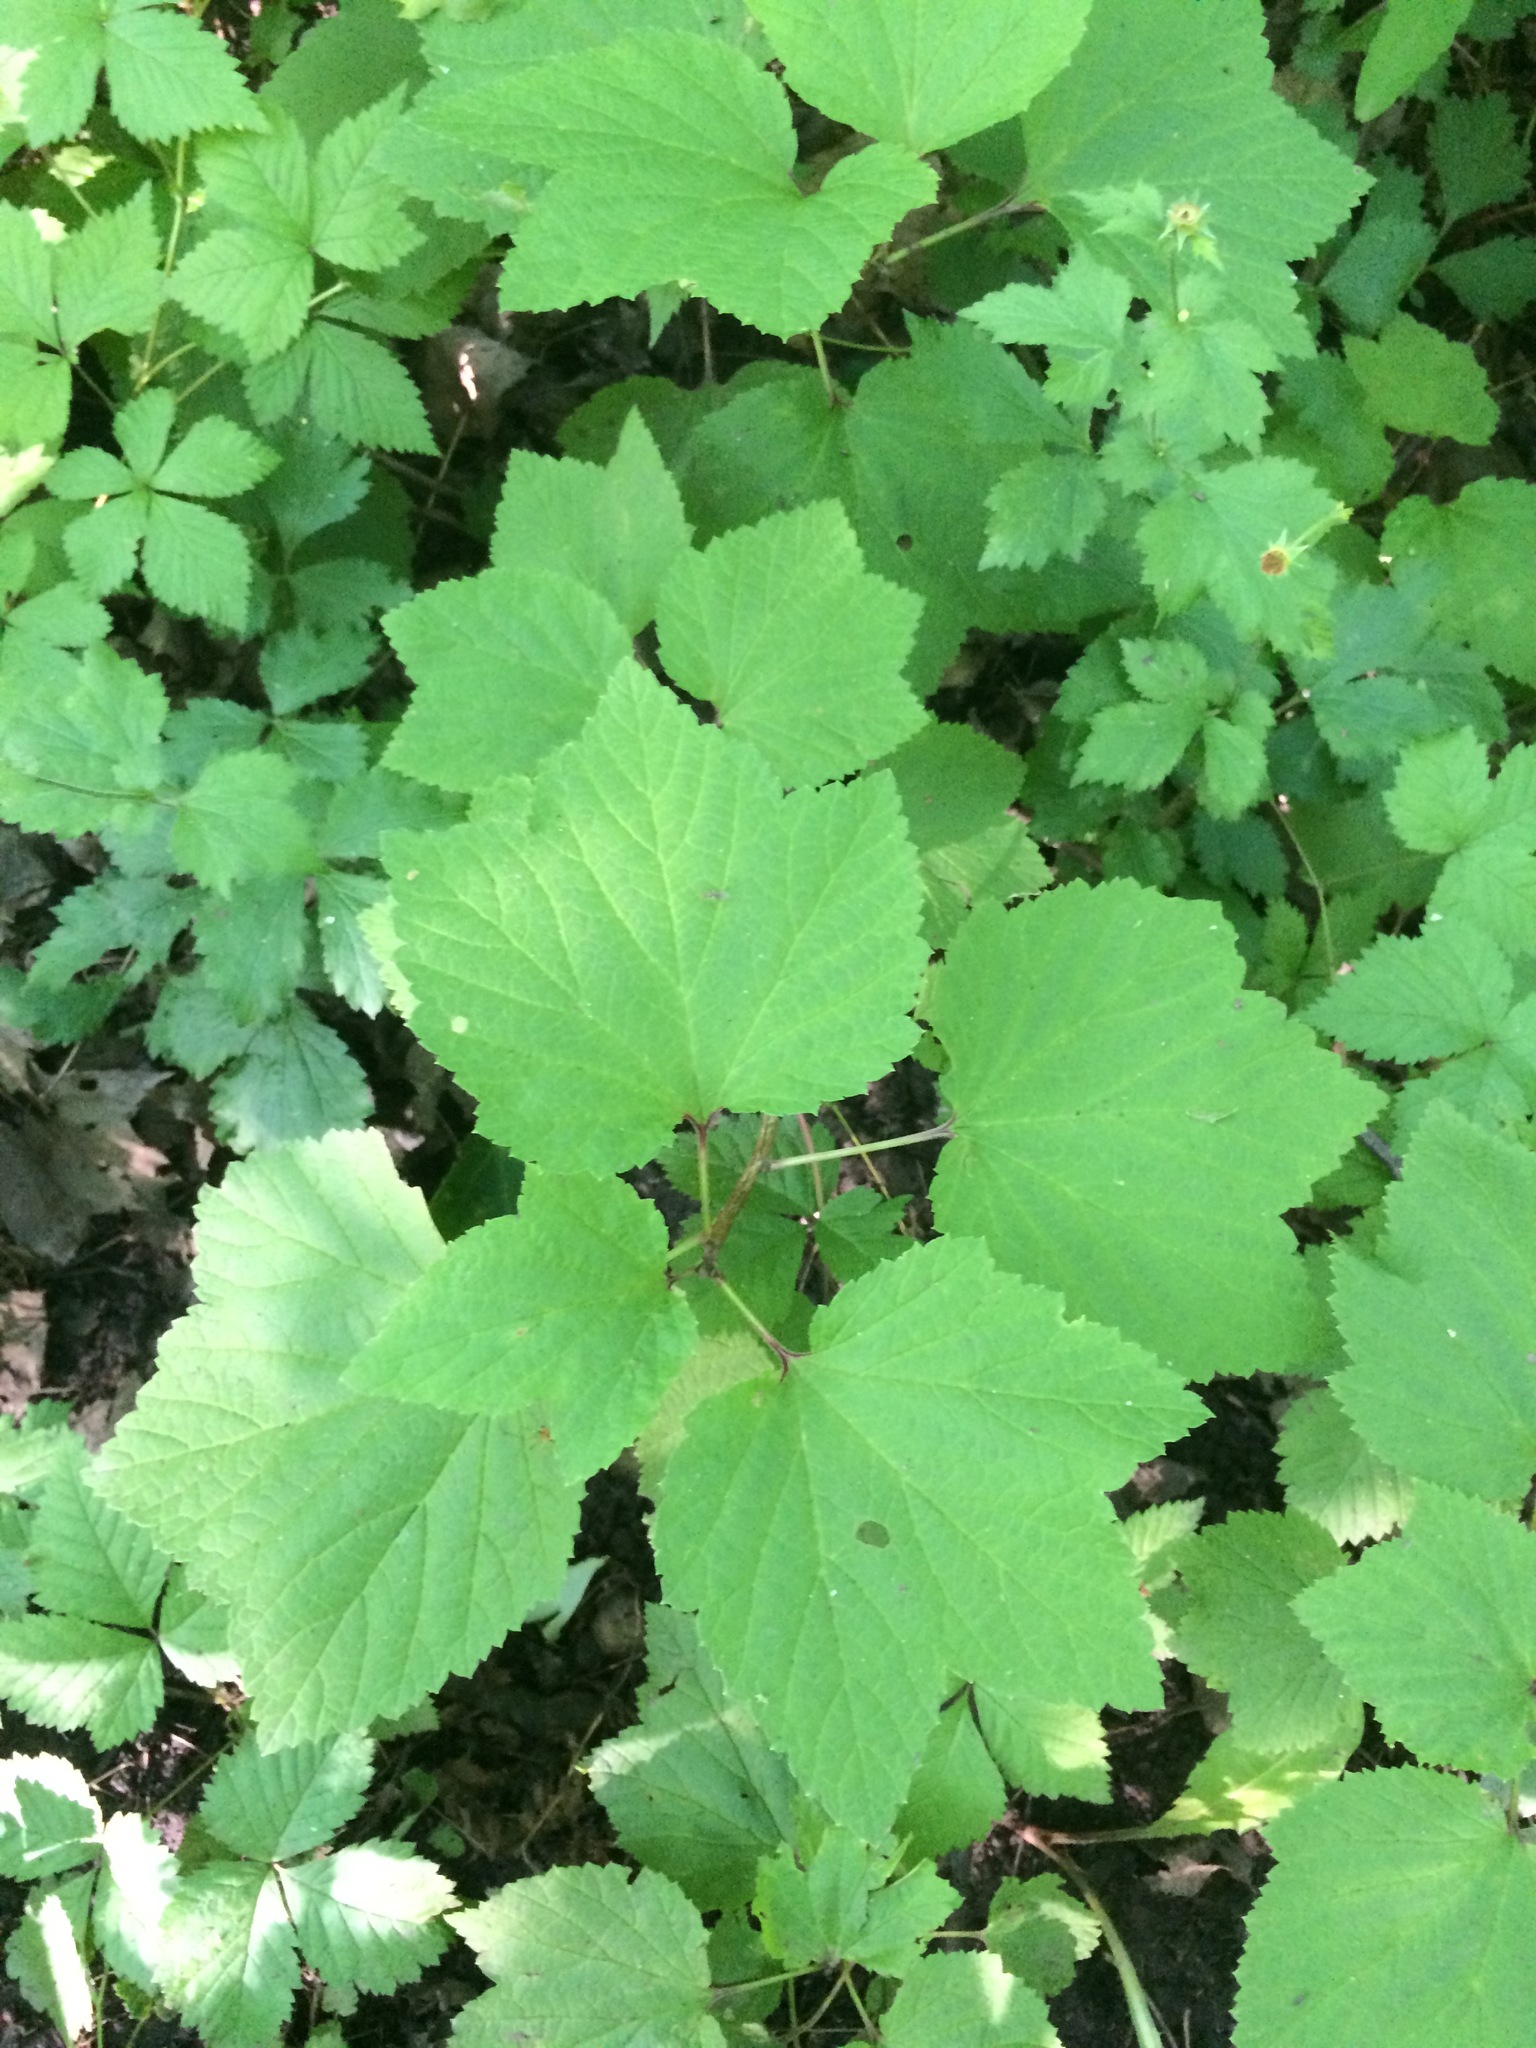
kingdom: Plantae
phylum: Tracheophyta
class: Magnoliopsida
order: Saxifragales
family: Grossulariaceae
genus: Ribes
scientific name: Ribes triste
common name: Swamp red currant
